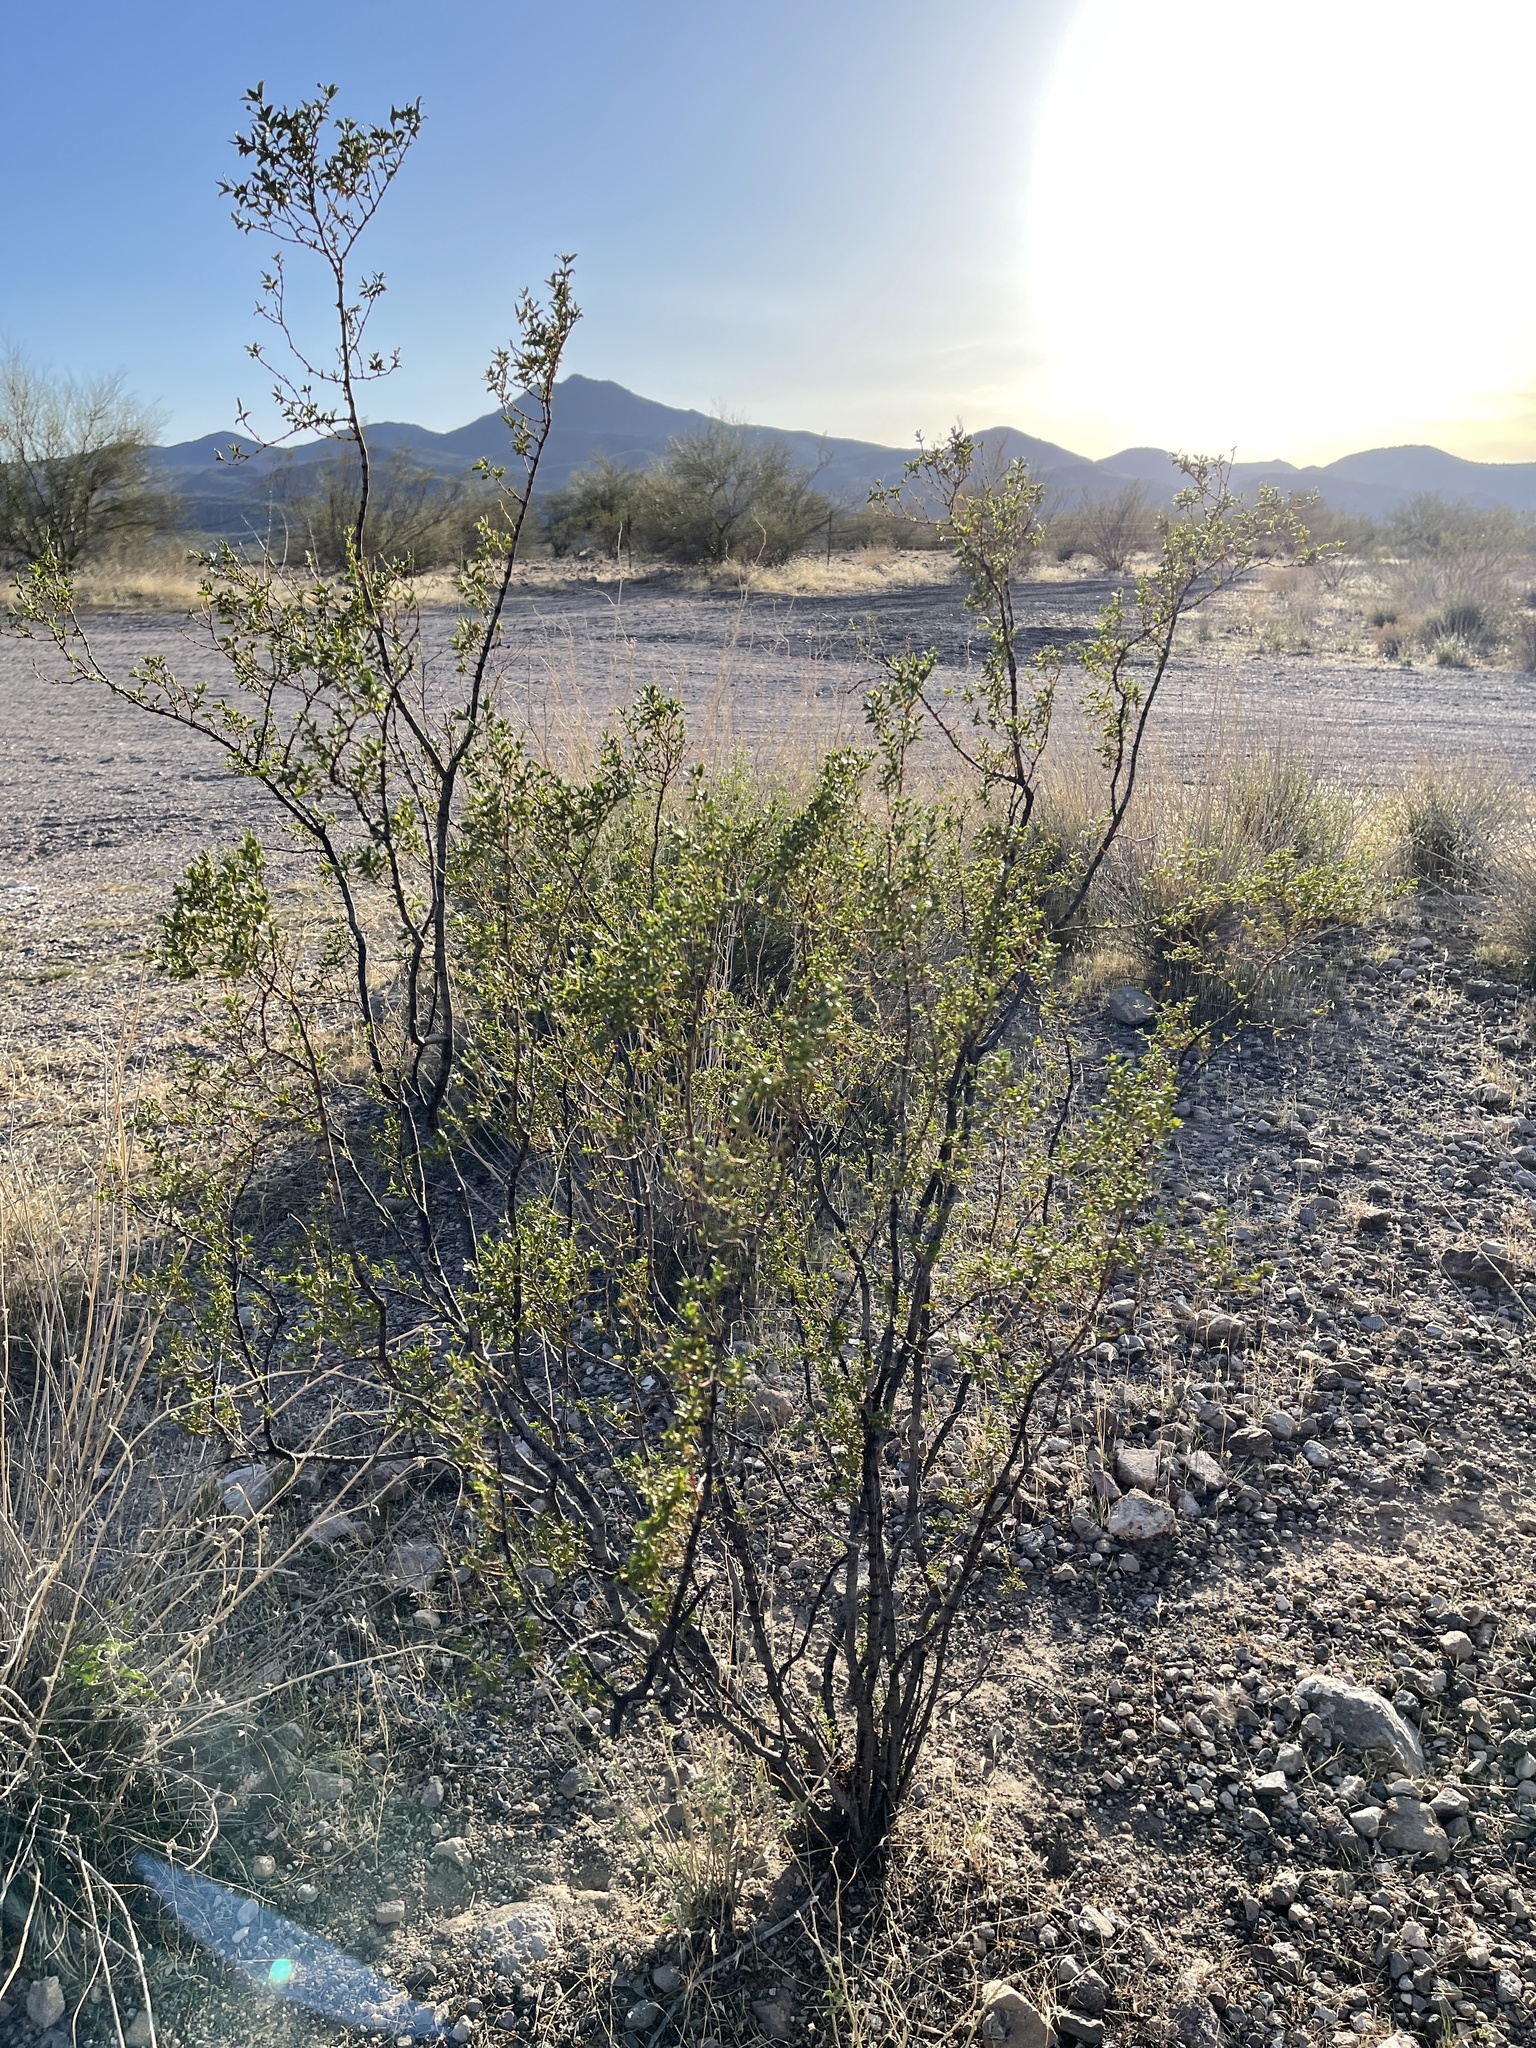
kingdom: Plantae
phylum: Tracheophyta
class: Magnoliopsida
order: Zygophyllales
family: Zygophyllaceae
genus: Larrea
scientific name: Larrea tridentata
